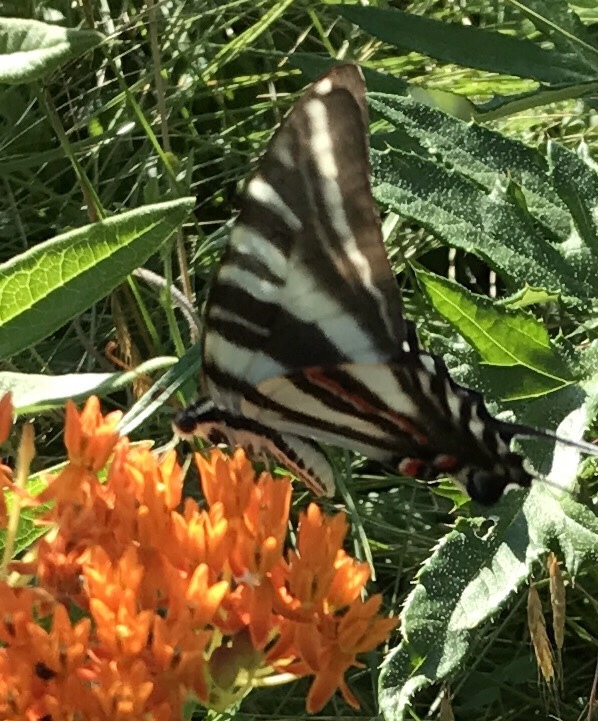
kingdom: Animalia
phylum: Arthropoda
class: Insecta
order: Lepidoptera
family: Papilionidae
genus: Protographium
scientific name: Protographium marcellus
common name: Zebra swallowtail
